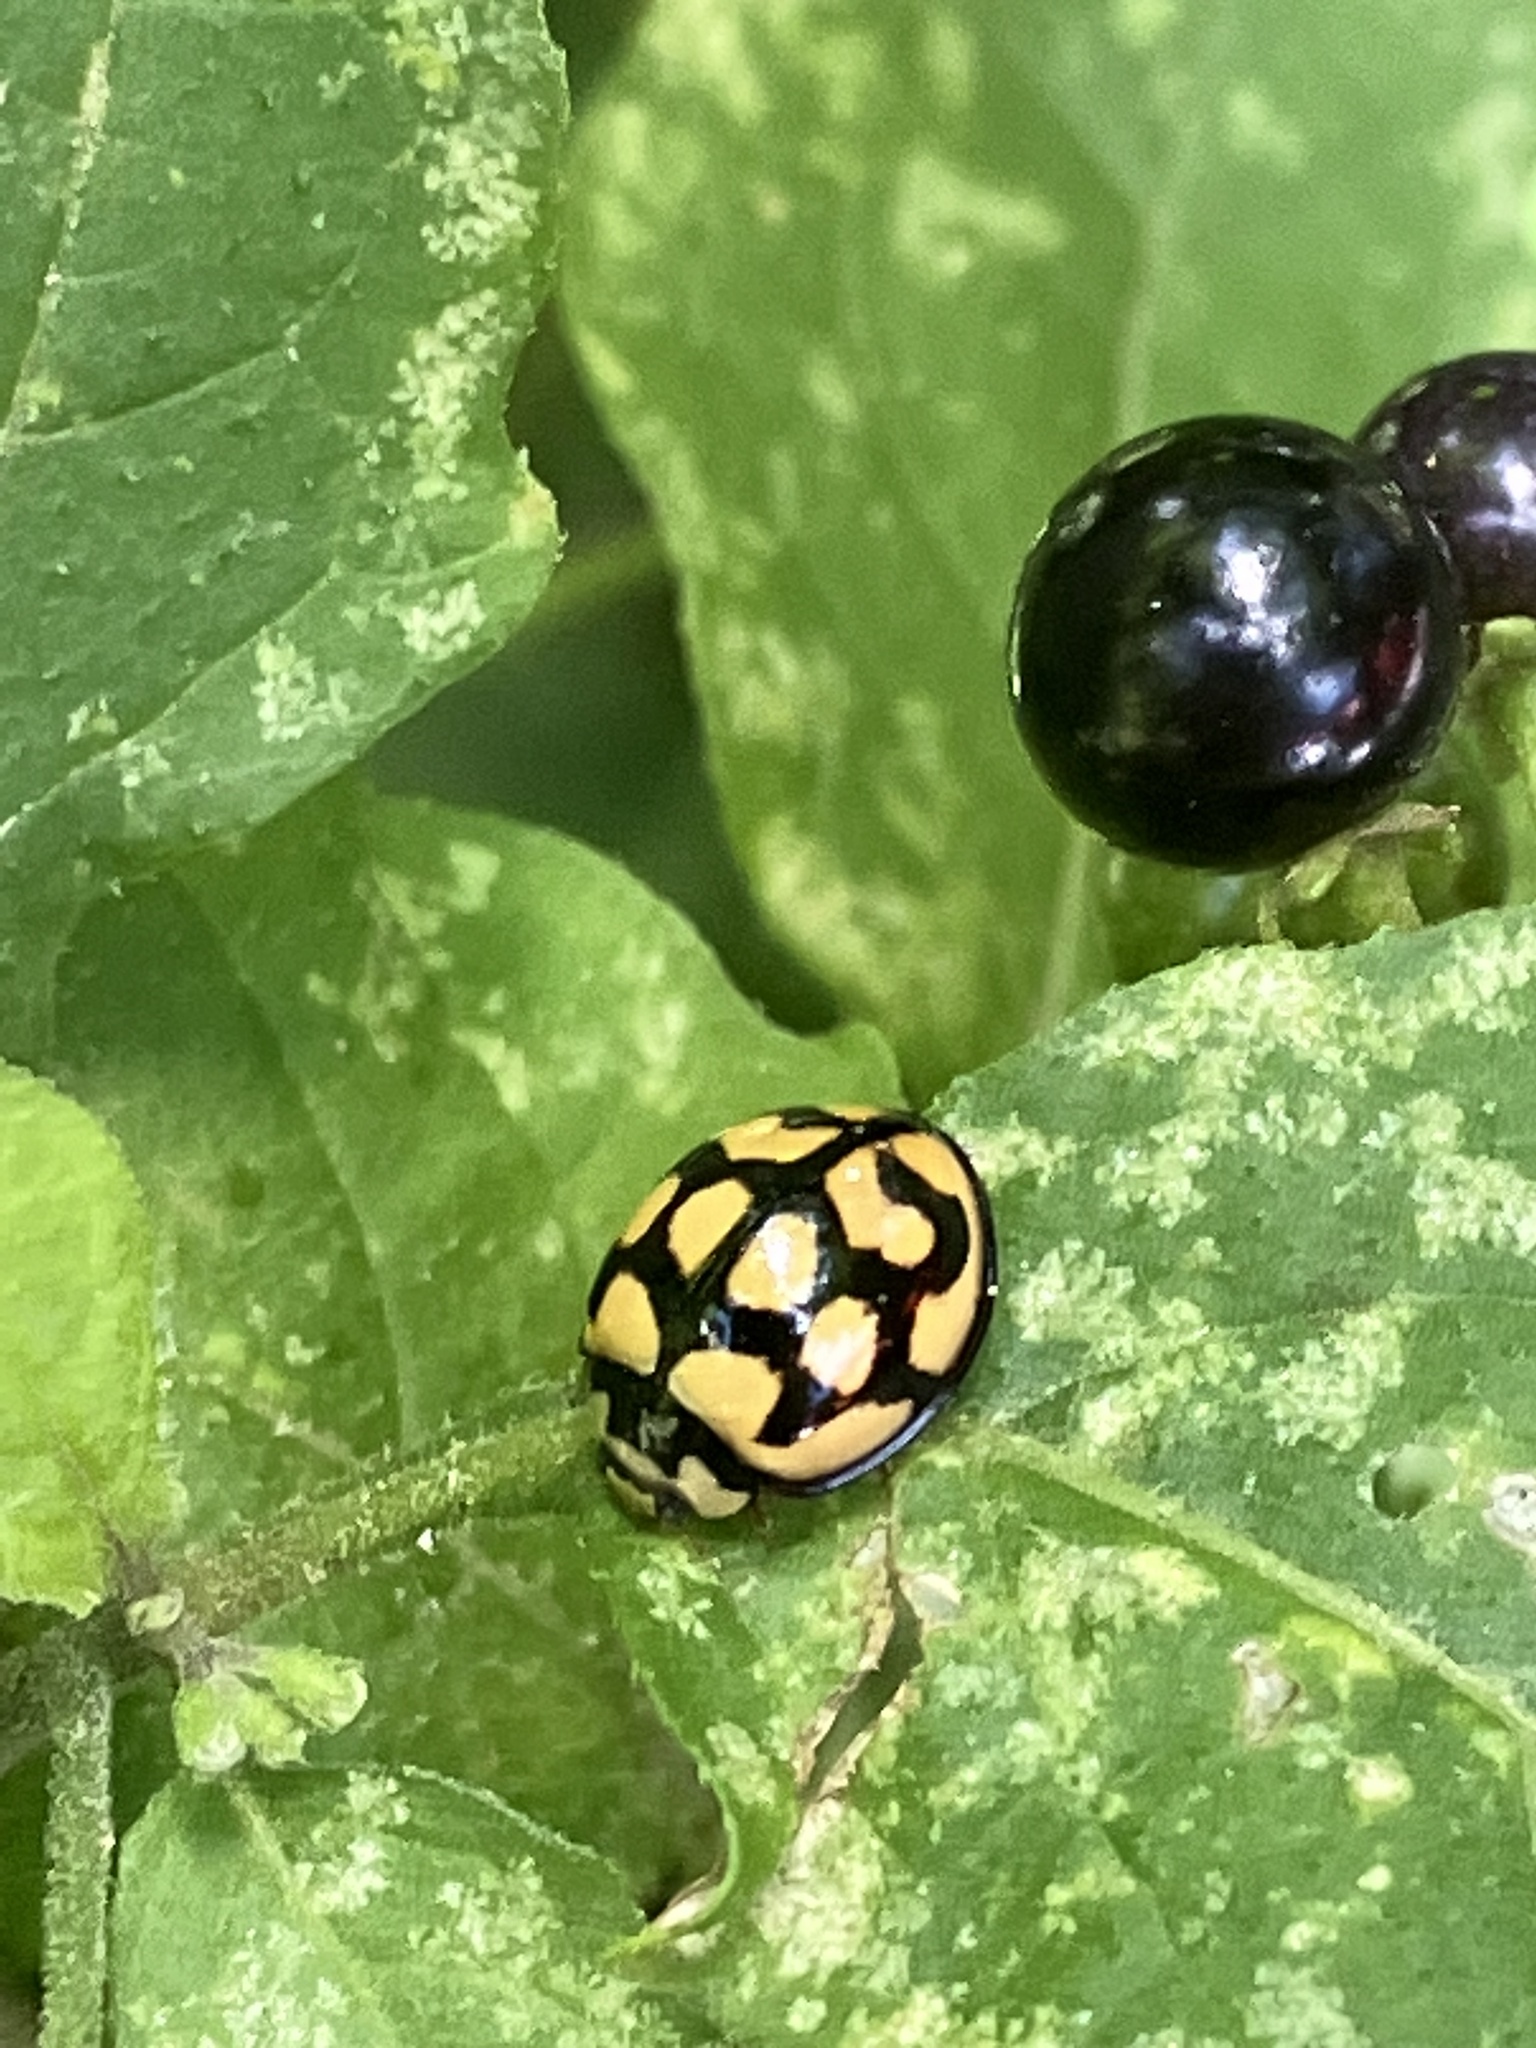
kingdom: Animalia
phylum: Arthropoda
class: Insecta
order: Coleoptera
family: Coccinellidae
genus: Cheilomenes
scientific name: Cheilomenes lunata
